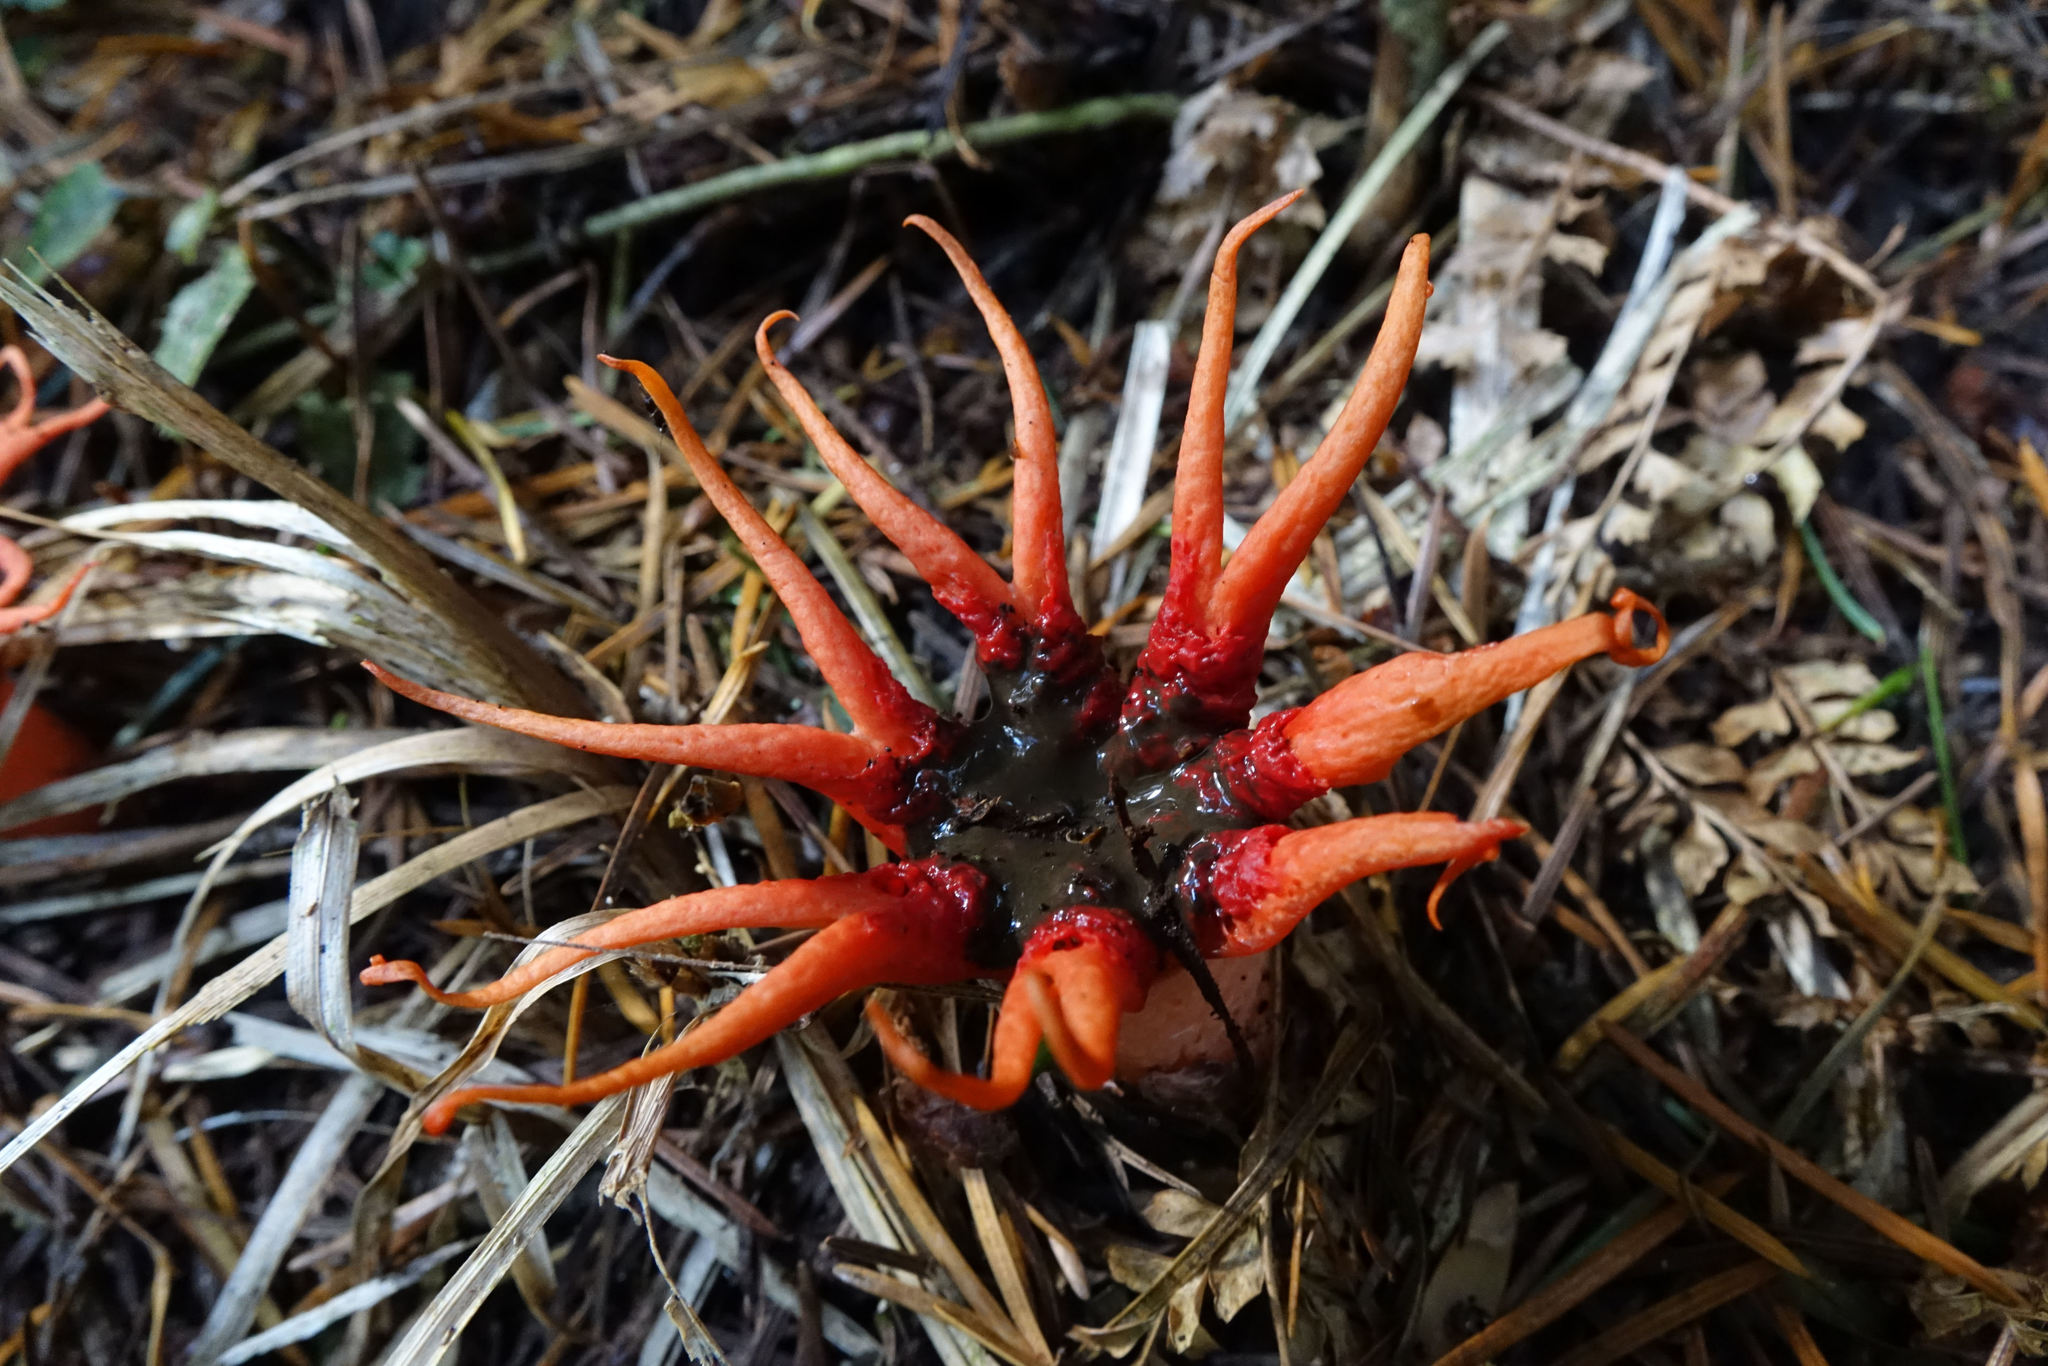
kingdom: Fungi
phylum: Basidiomycota
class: Agaricomycetes
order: Phallales
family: Phallaceae
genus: Aseroe
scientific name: Aseroe rubra
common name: Starfish fungus
